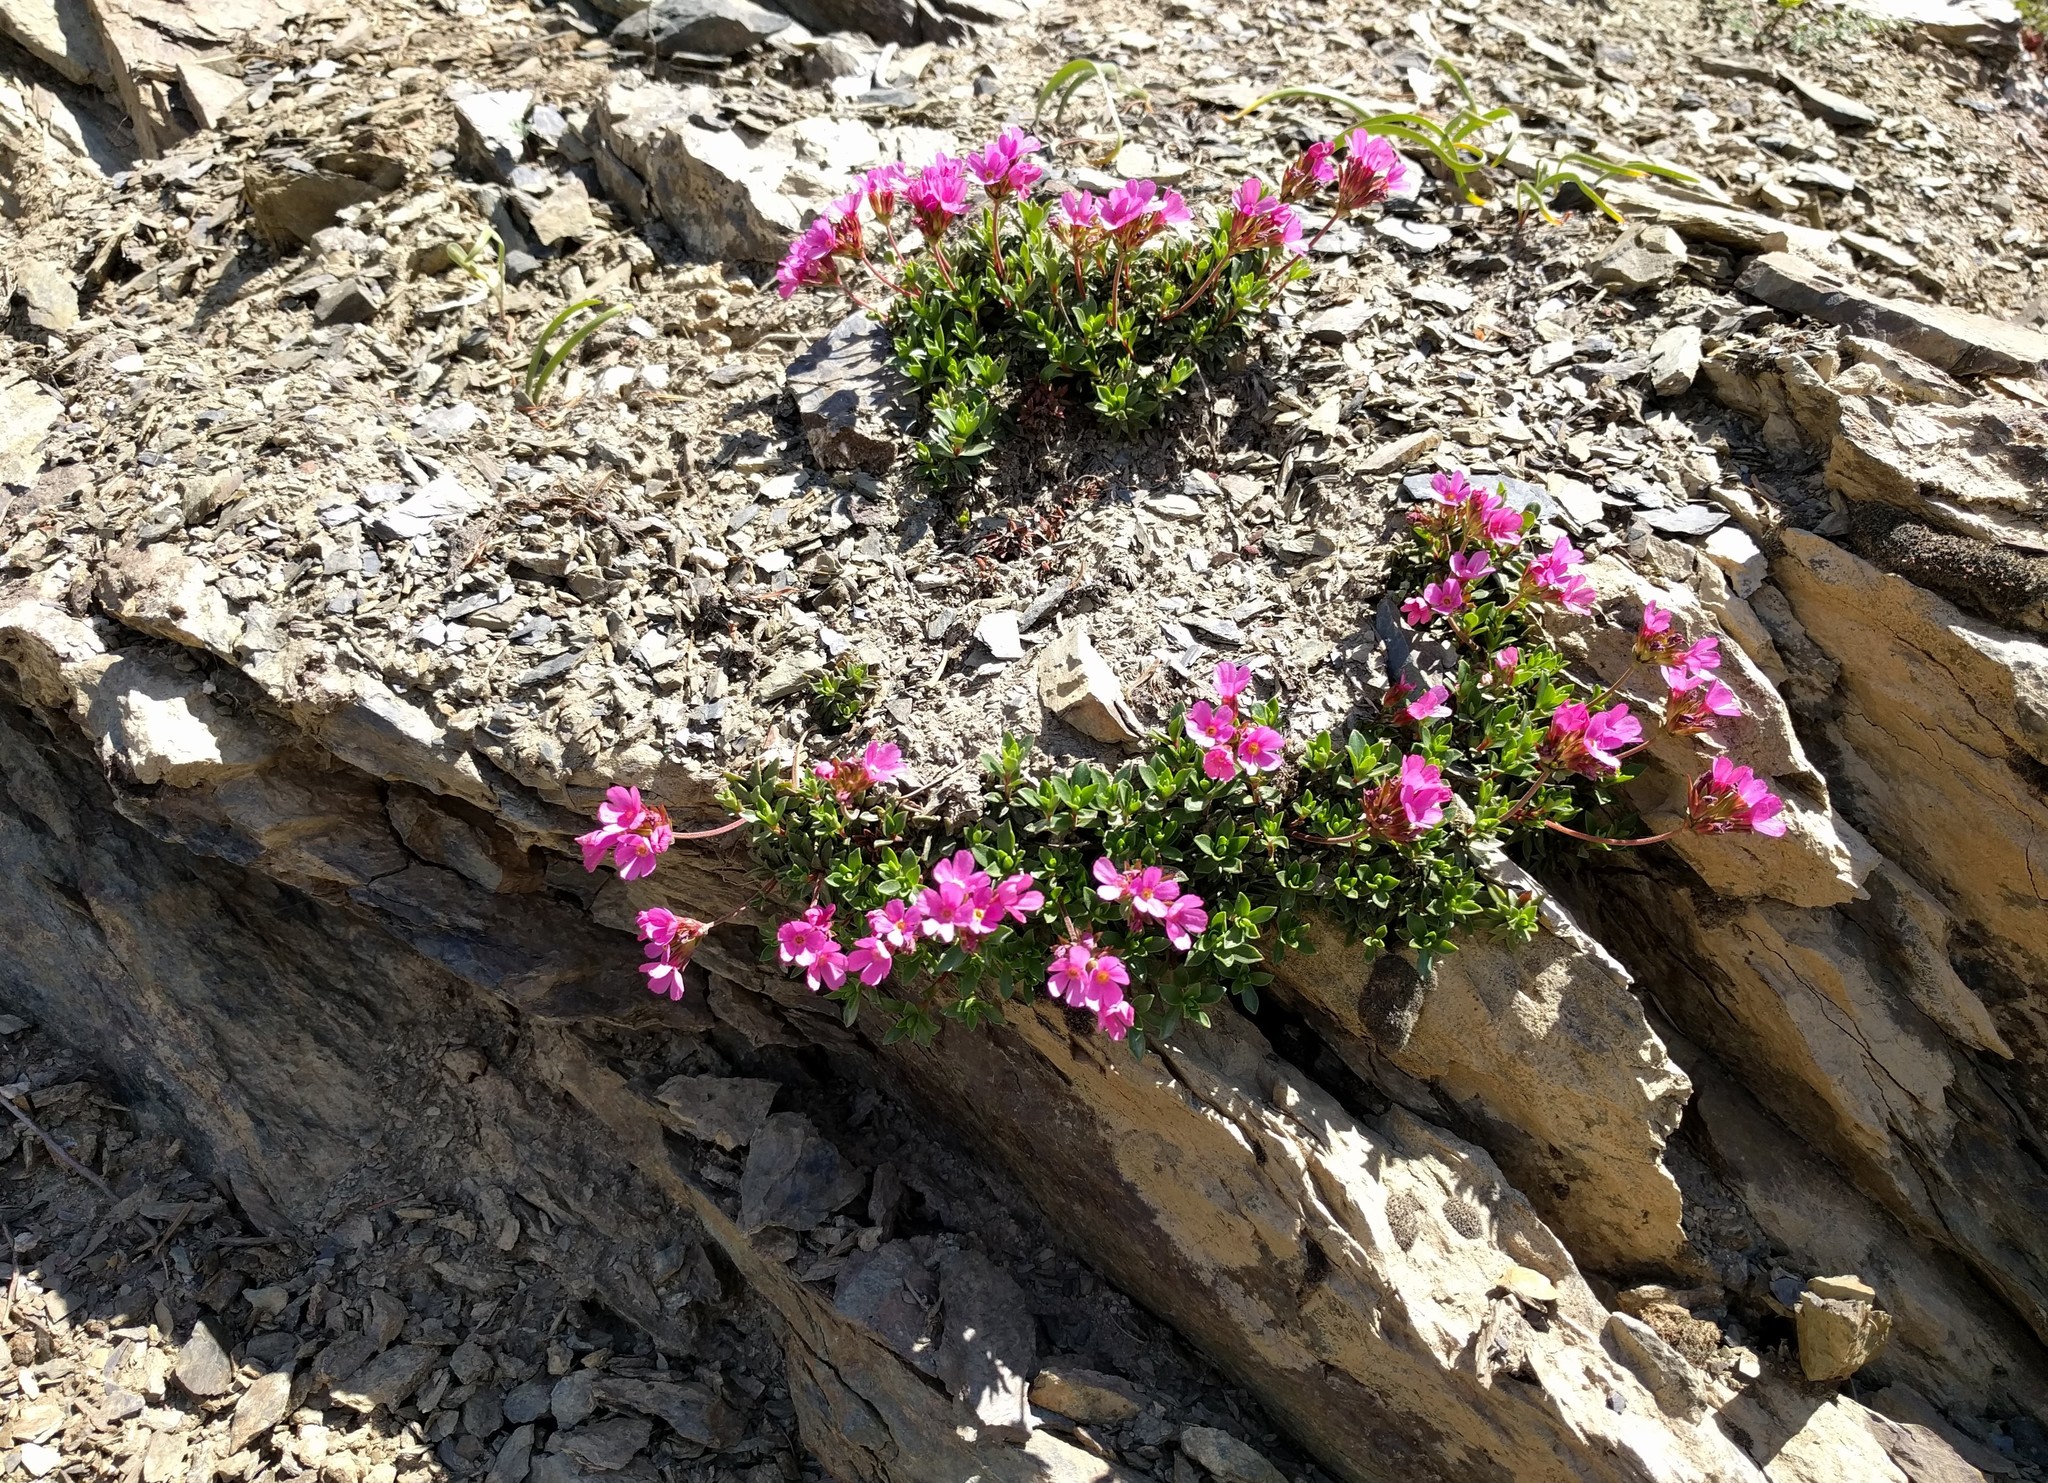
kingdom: Plantae
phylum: Tracheophyta
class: Magnoliopsida
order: Ericales
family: Primulaceae
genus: Androsace
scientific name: Androsace laevigata
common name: Cliff dwarf-primrose
